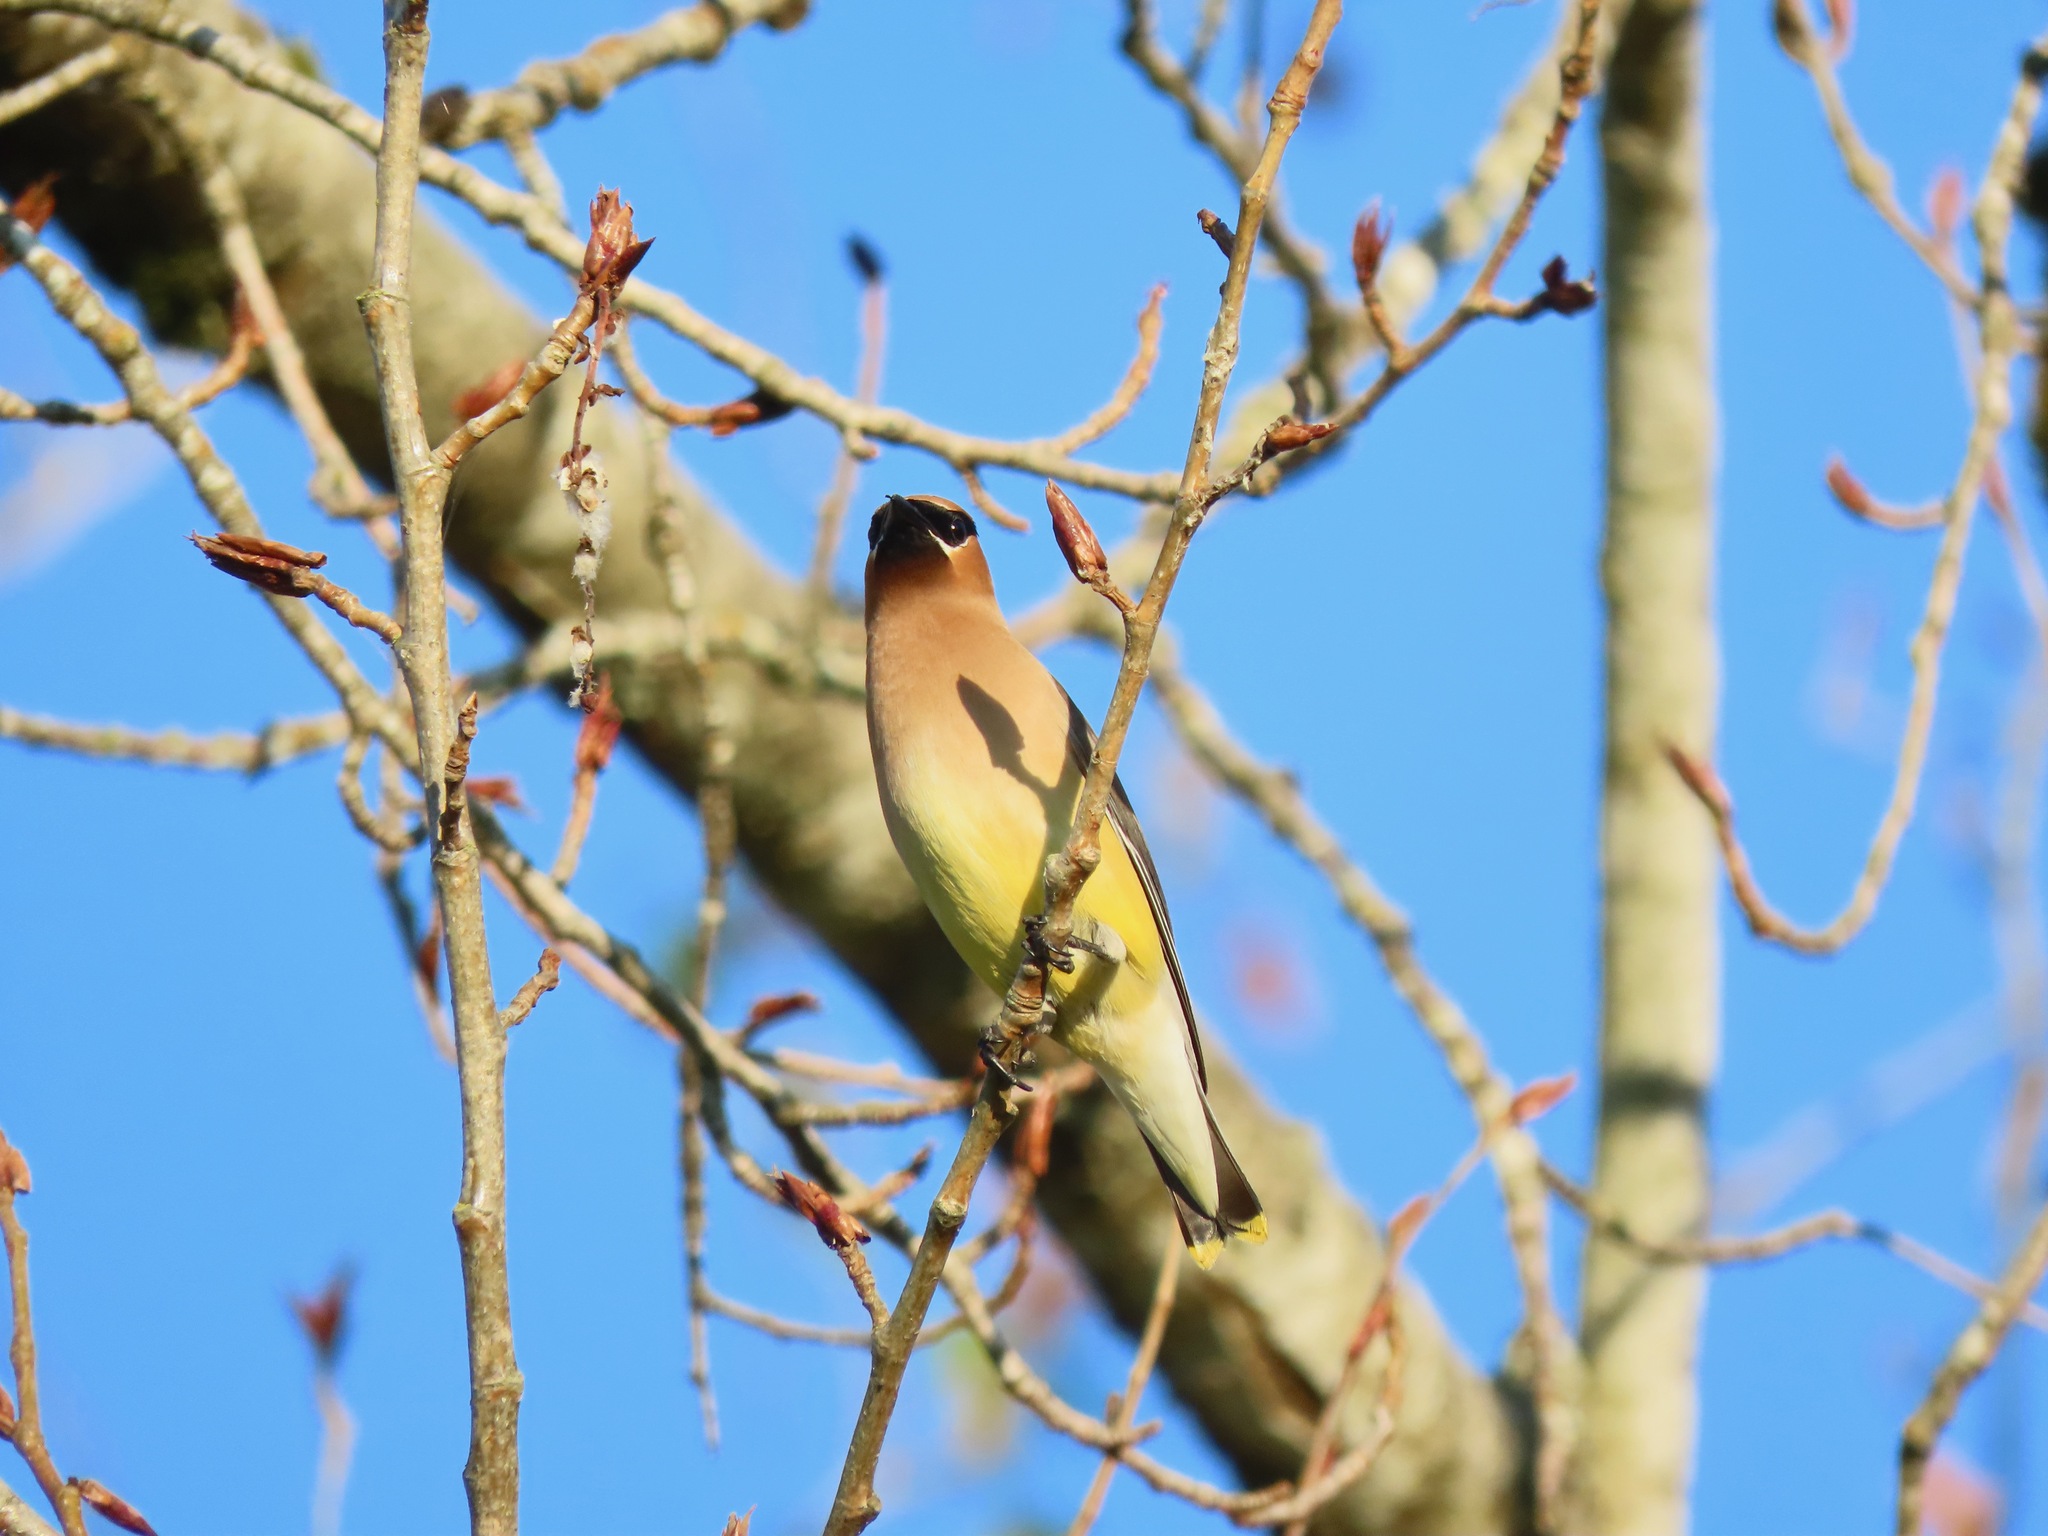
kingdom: Animalia
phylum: Chordata
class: Aves
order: Passeriformes
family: Bombycillidae
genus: Bombycilla
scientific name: Bombycilla cedrorum
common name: Cedar waxwing
